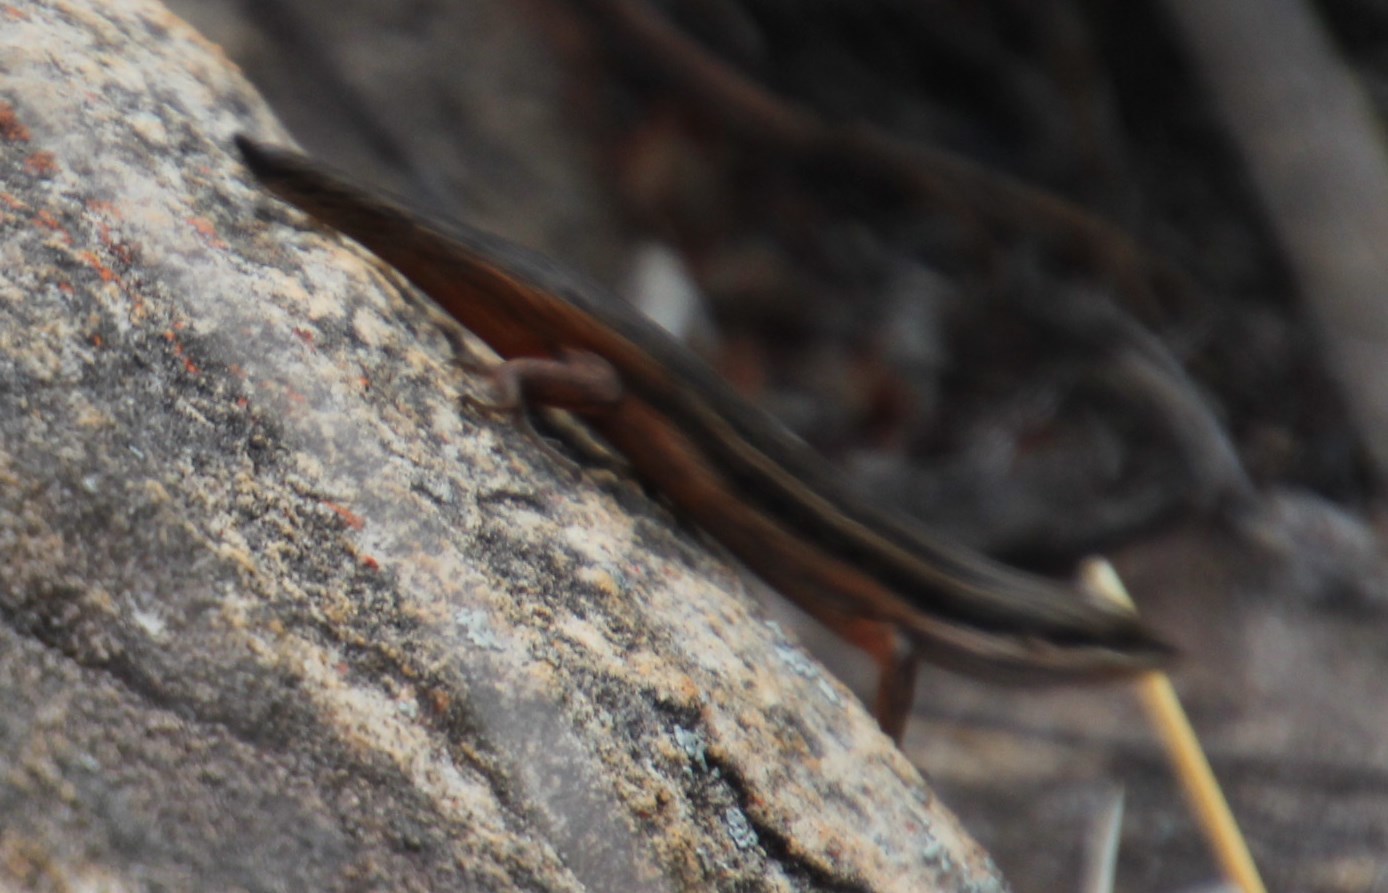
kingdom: Animalia
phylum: Chordata
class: Squamata
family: Scincidae
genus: Trachylepis
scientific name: Trachylepis variegata
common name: Variegated skink
